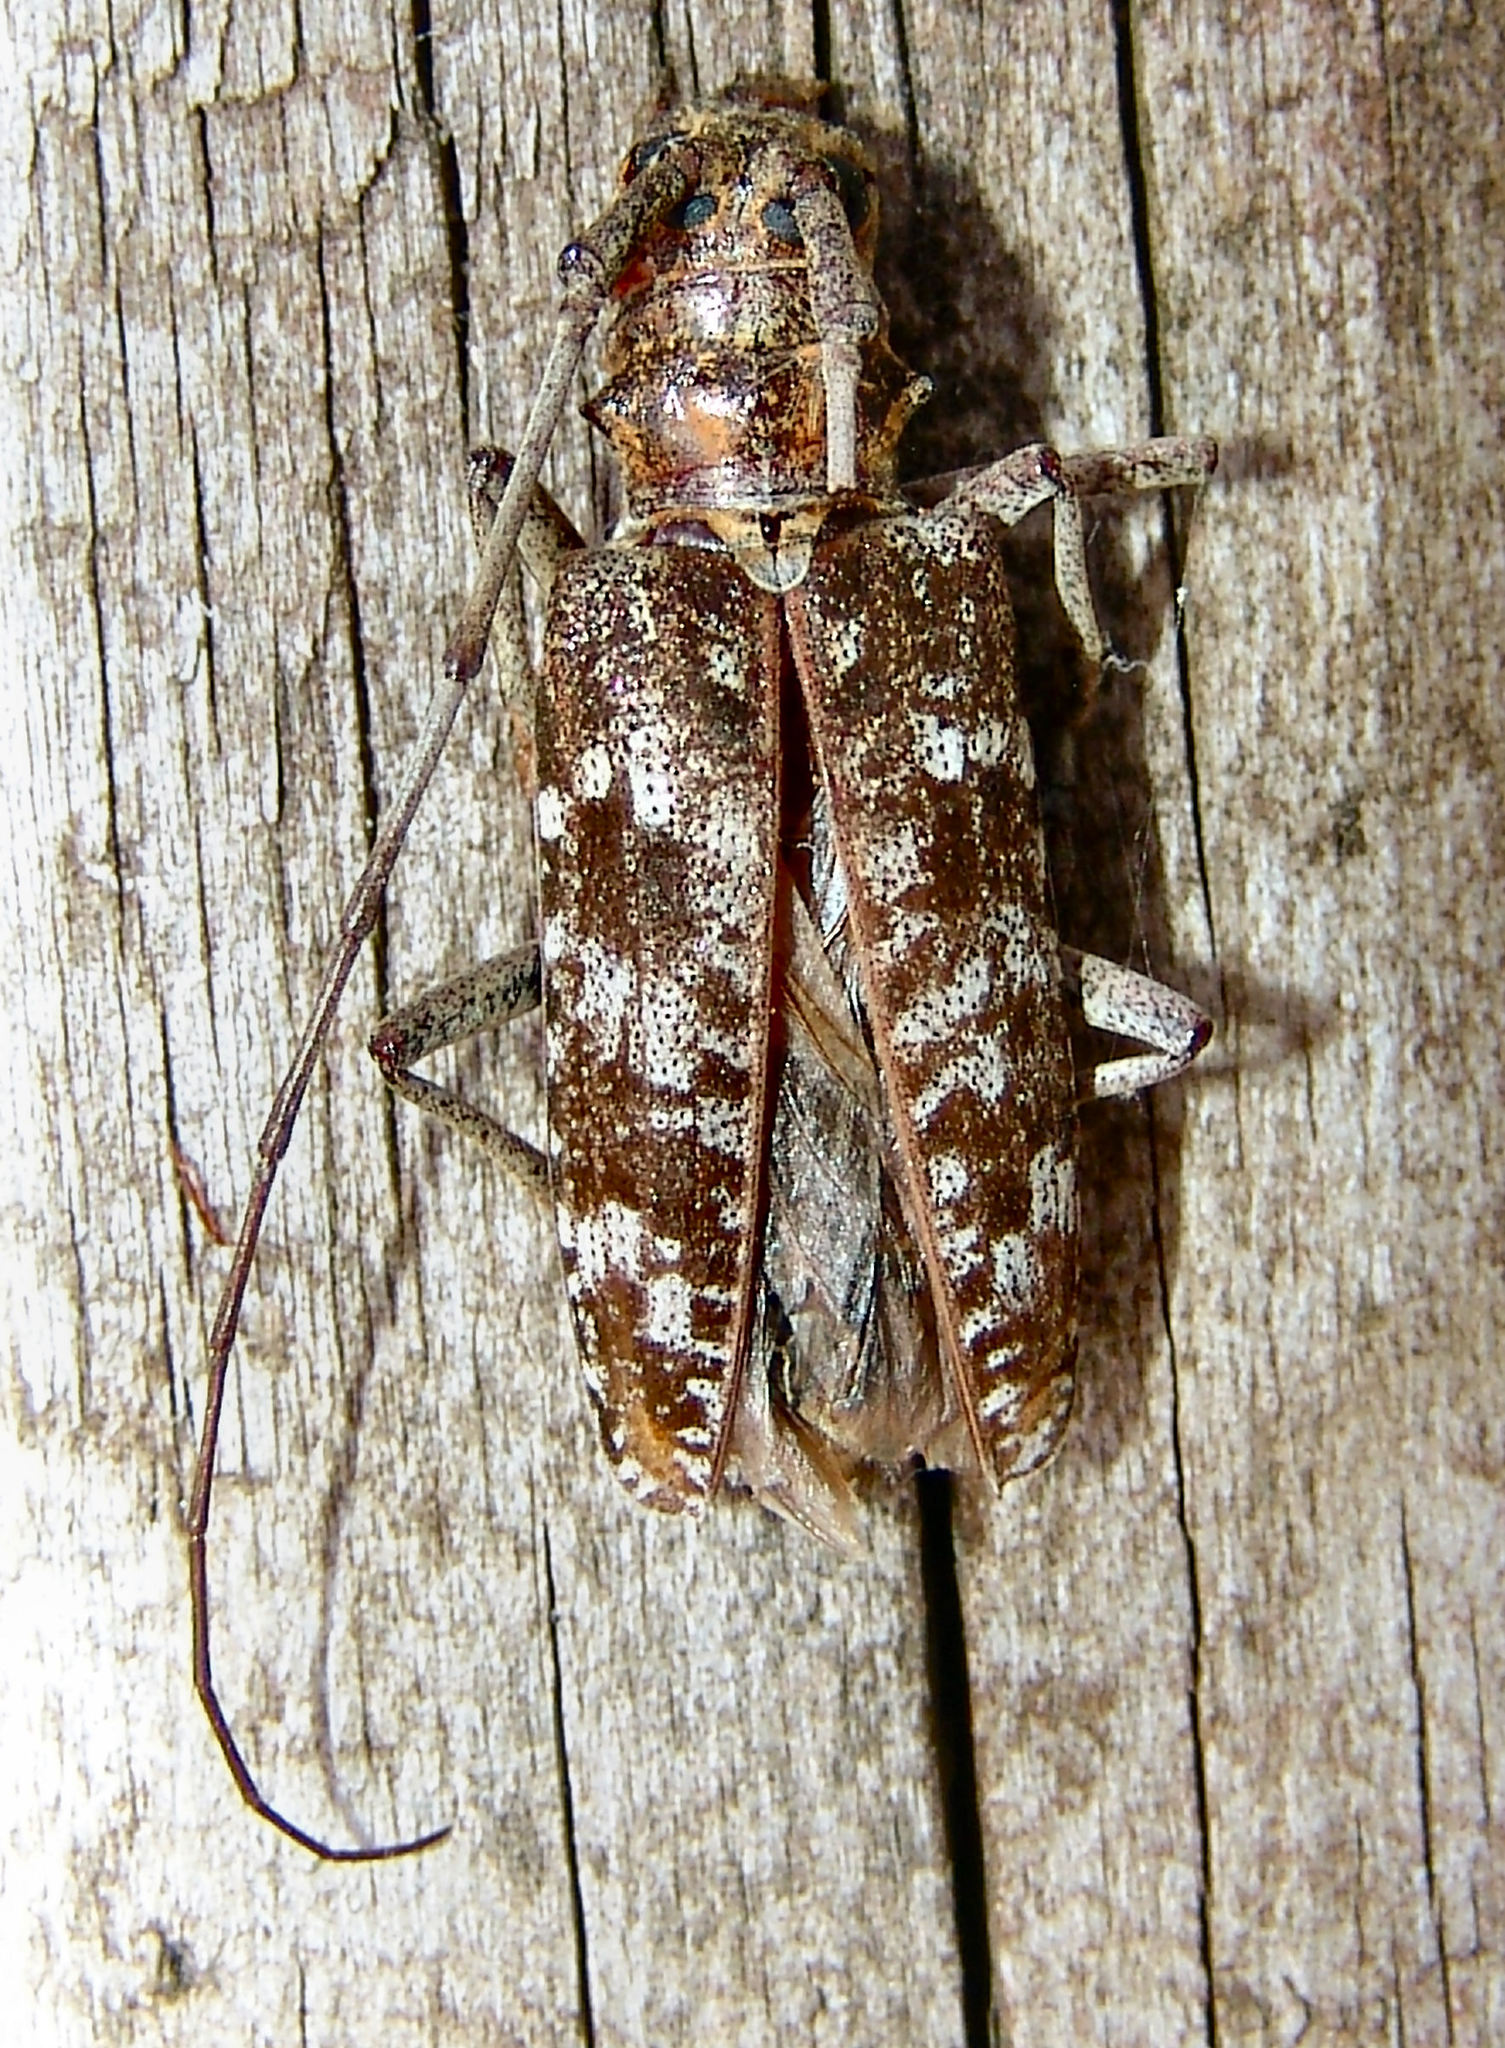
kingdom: Animalia
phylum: Arthropoda
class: Insecta
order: Coleoptera
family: Cerambycidae
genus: Monochamus
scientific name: Monochamus carolinensis
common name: Carolina pine sawyer
